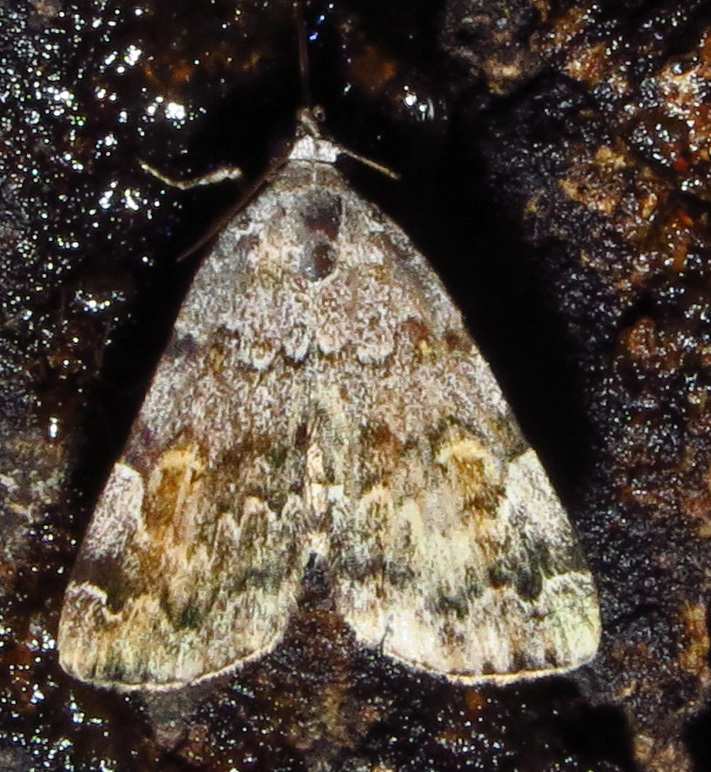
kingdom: Animalia
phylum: Arthropoda
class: Insecta
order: Lepidoptera
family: Erebidae
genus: Idia
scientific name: Idia americalis
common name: American idia moth
